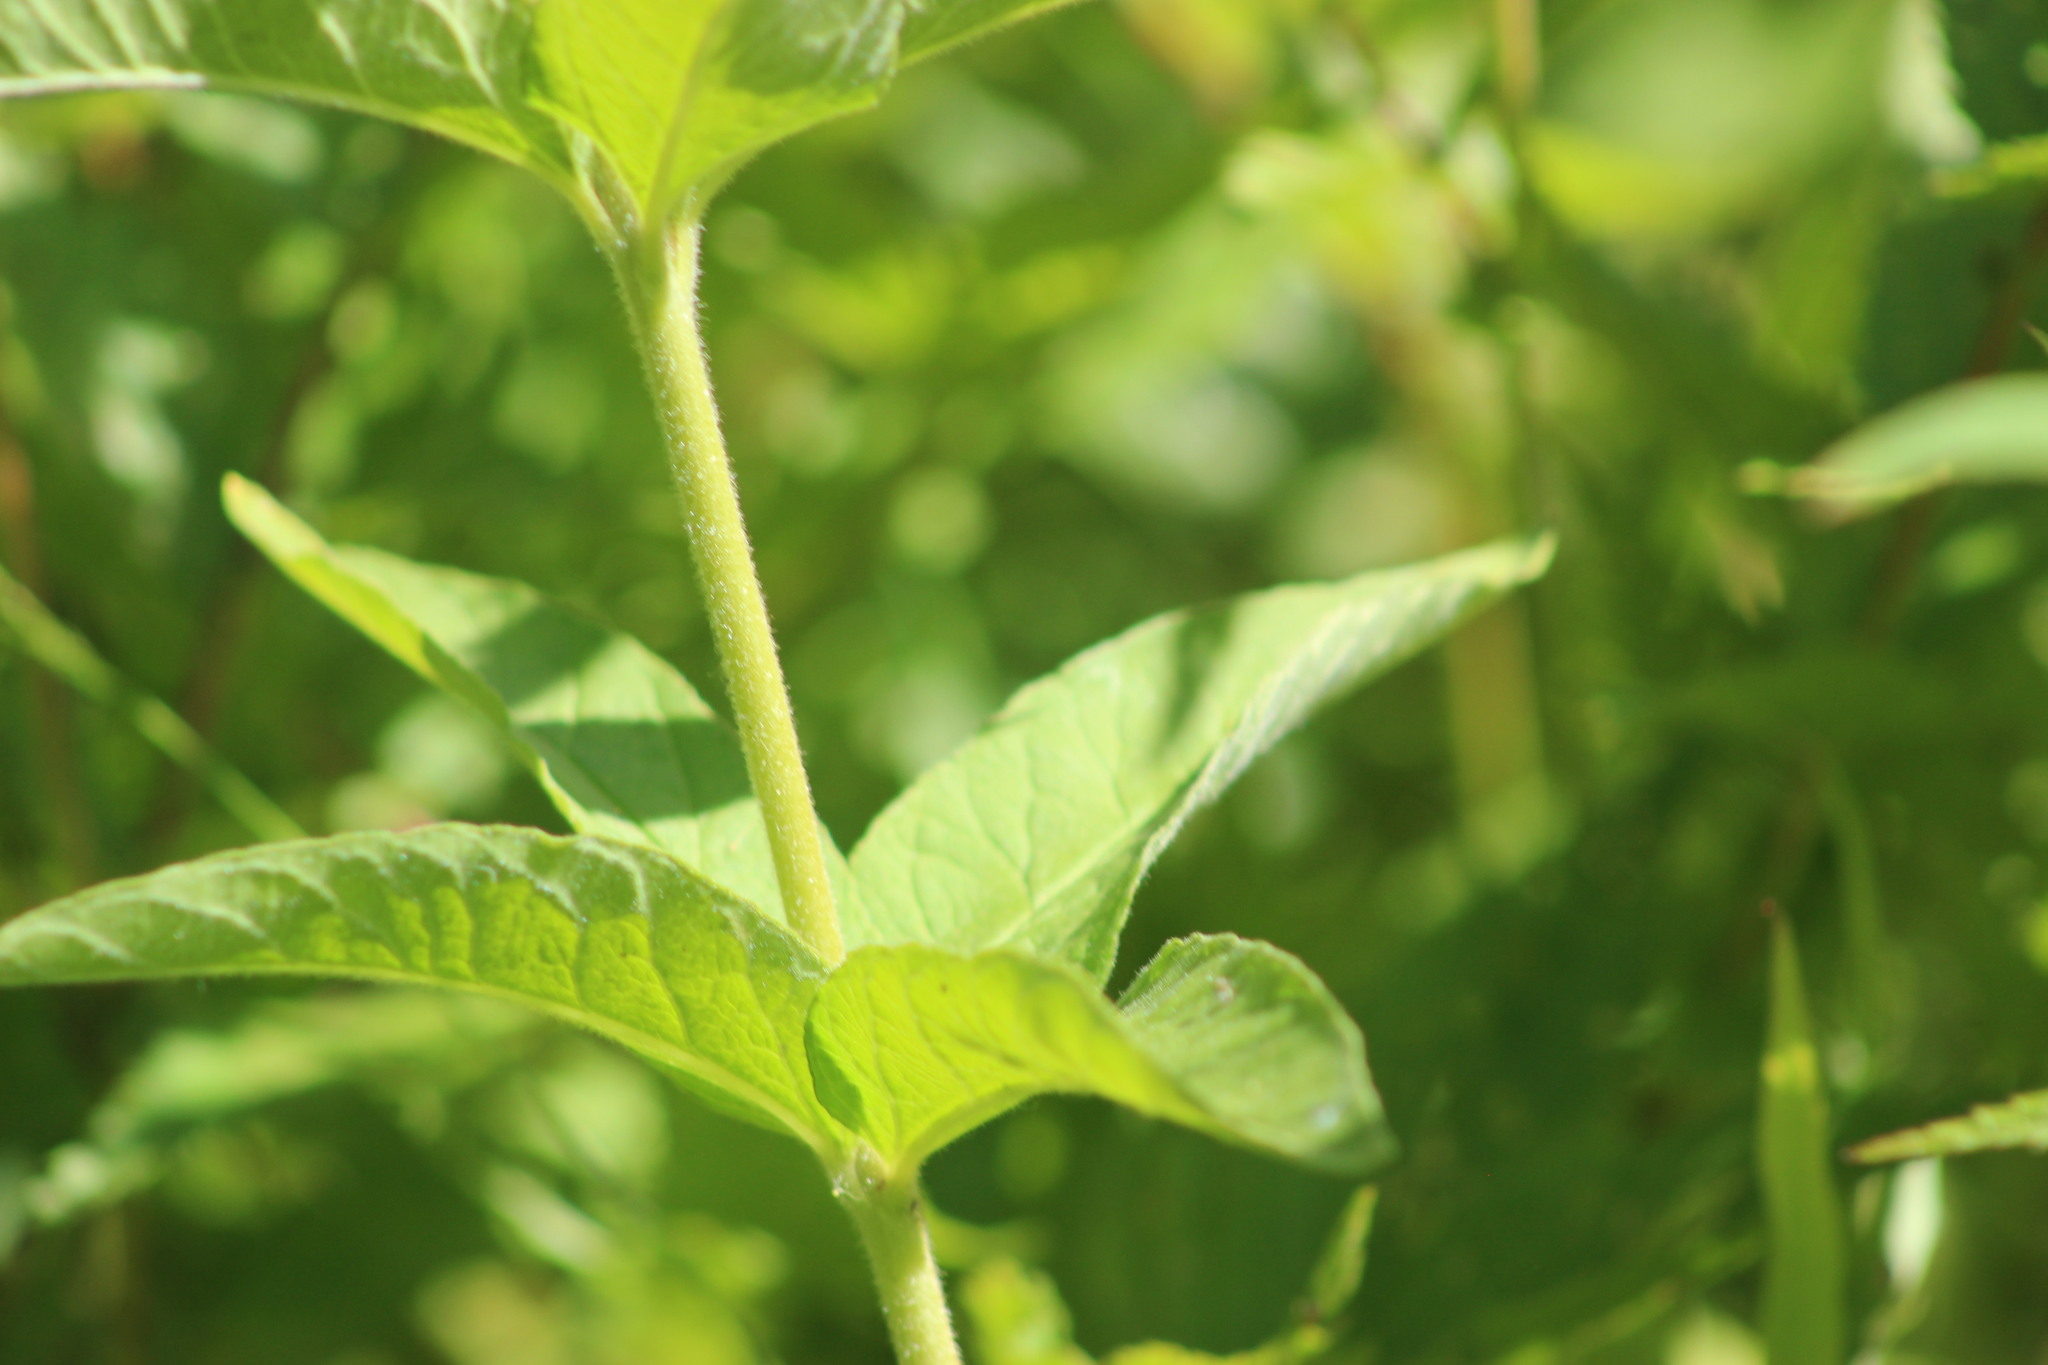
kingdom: Plantae
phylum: Tracheophyta
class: Magnoliopsida
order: Ericales
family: Primulaceae
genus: Lysimachia
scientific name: Lysimachia vulgaris
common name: Yellow loosestrife
